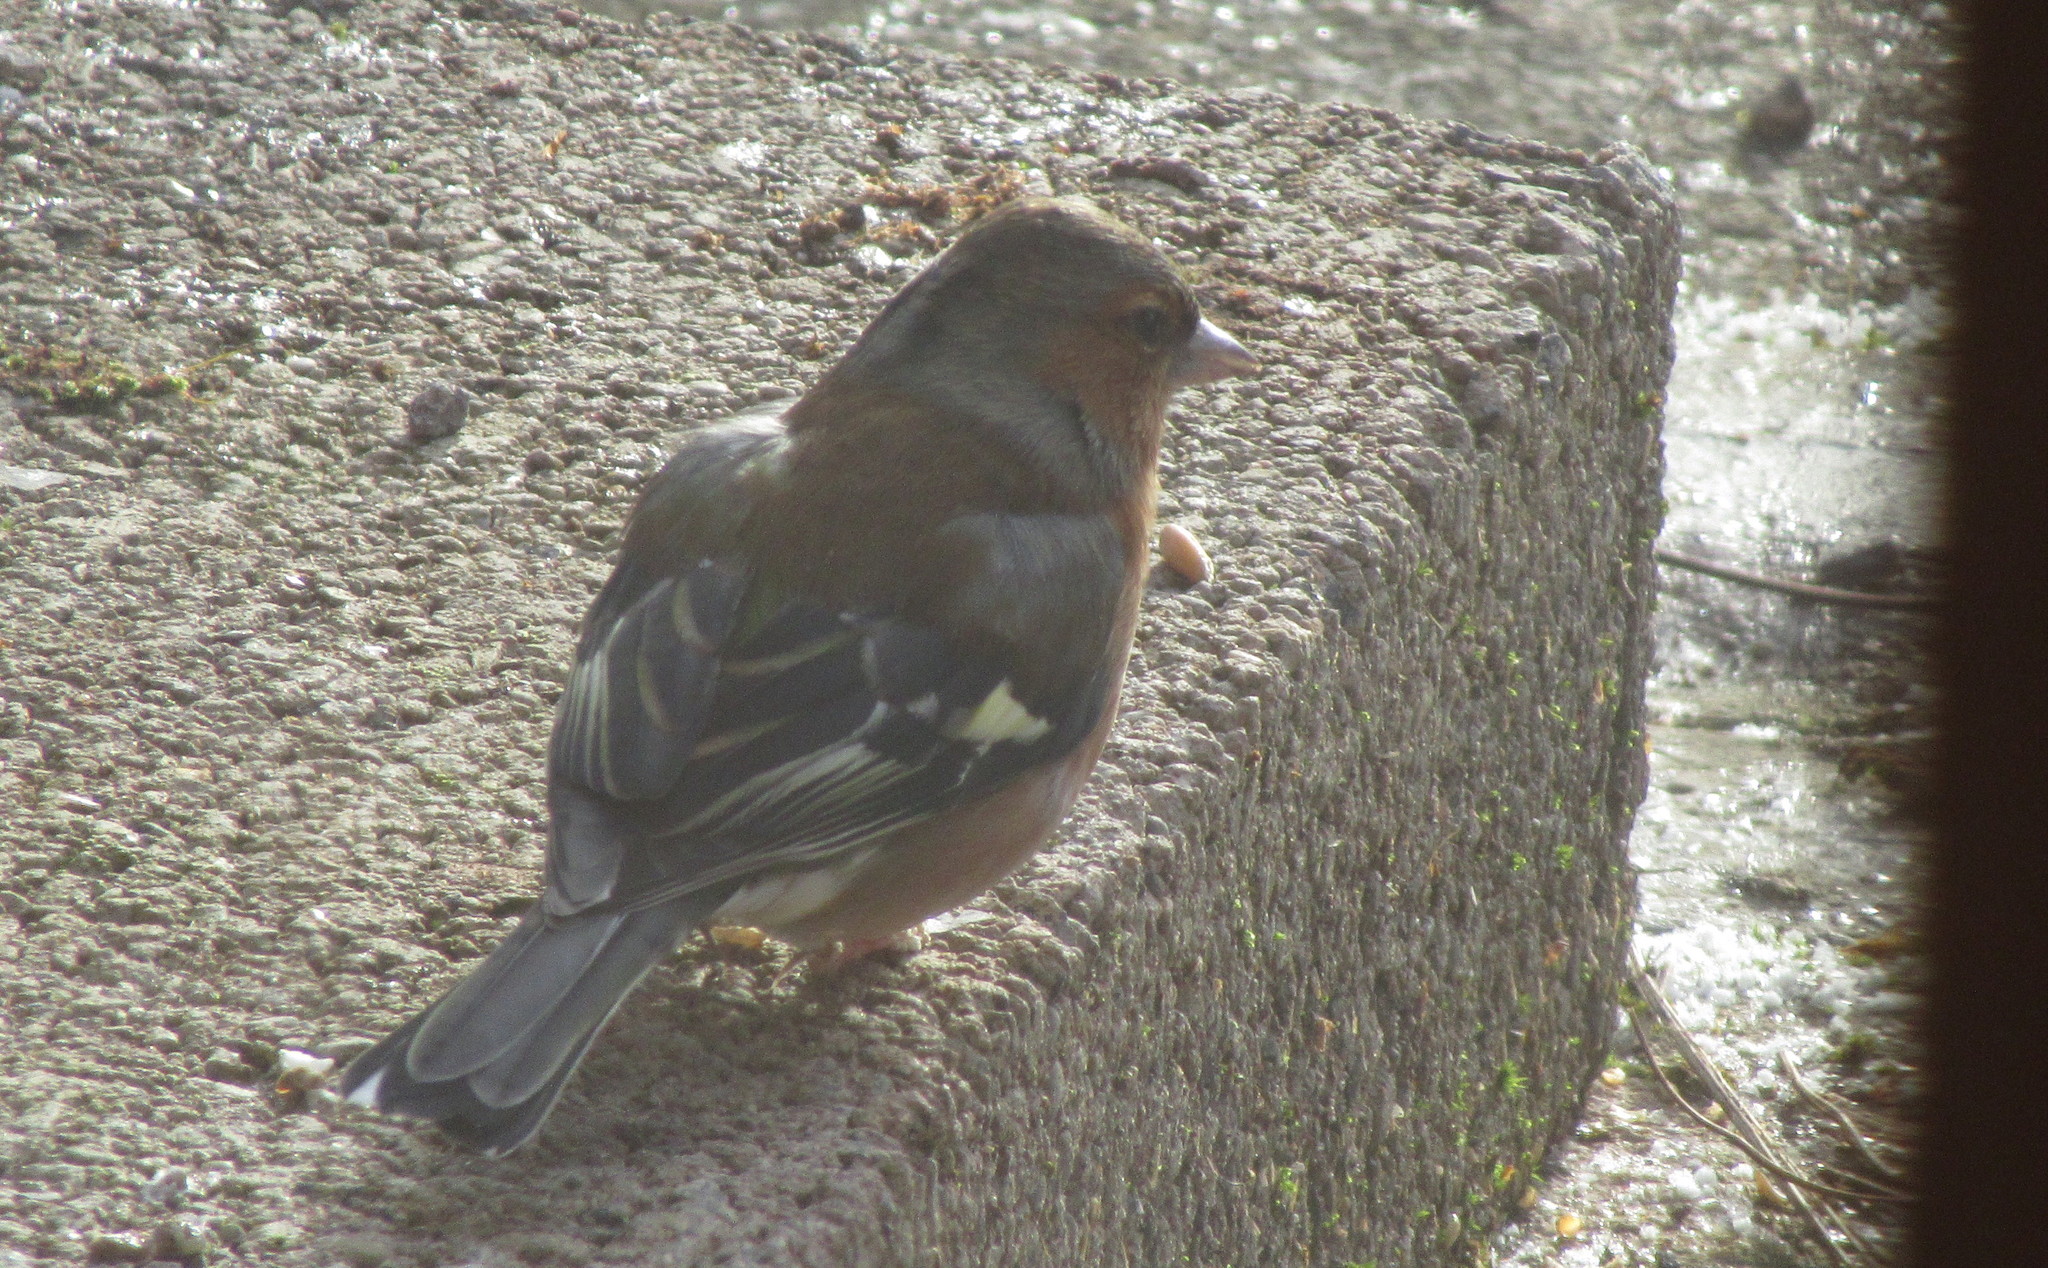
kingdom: Animalia
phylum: Chordata
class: Aves
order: Passeriformes
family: Fringillidae
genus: Fringilla
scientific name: Fringilla coelebs
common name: Common chaffinch
